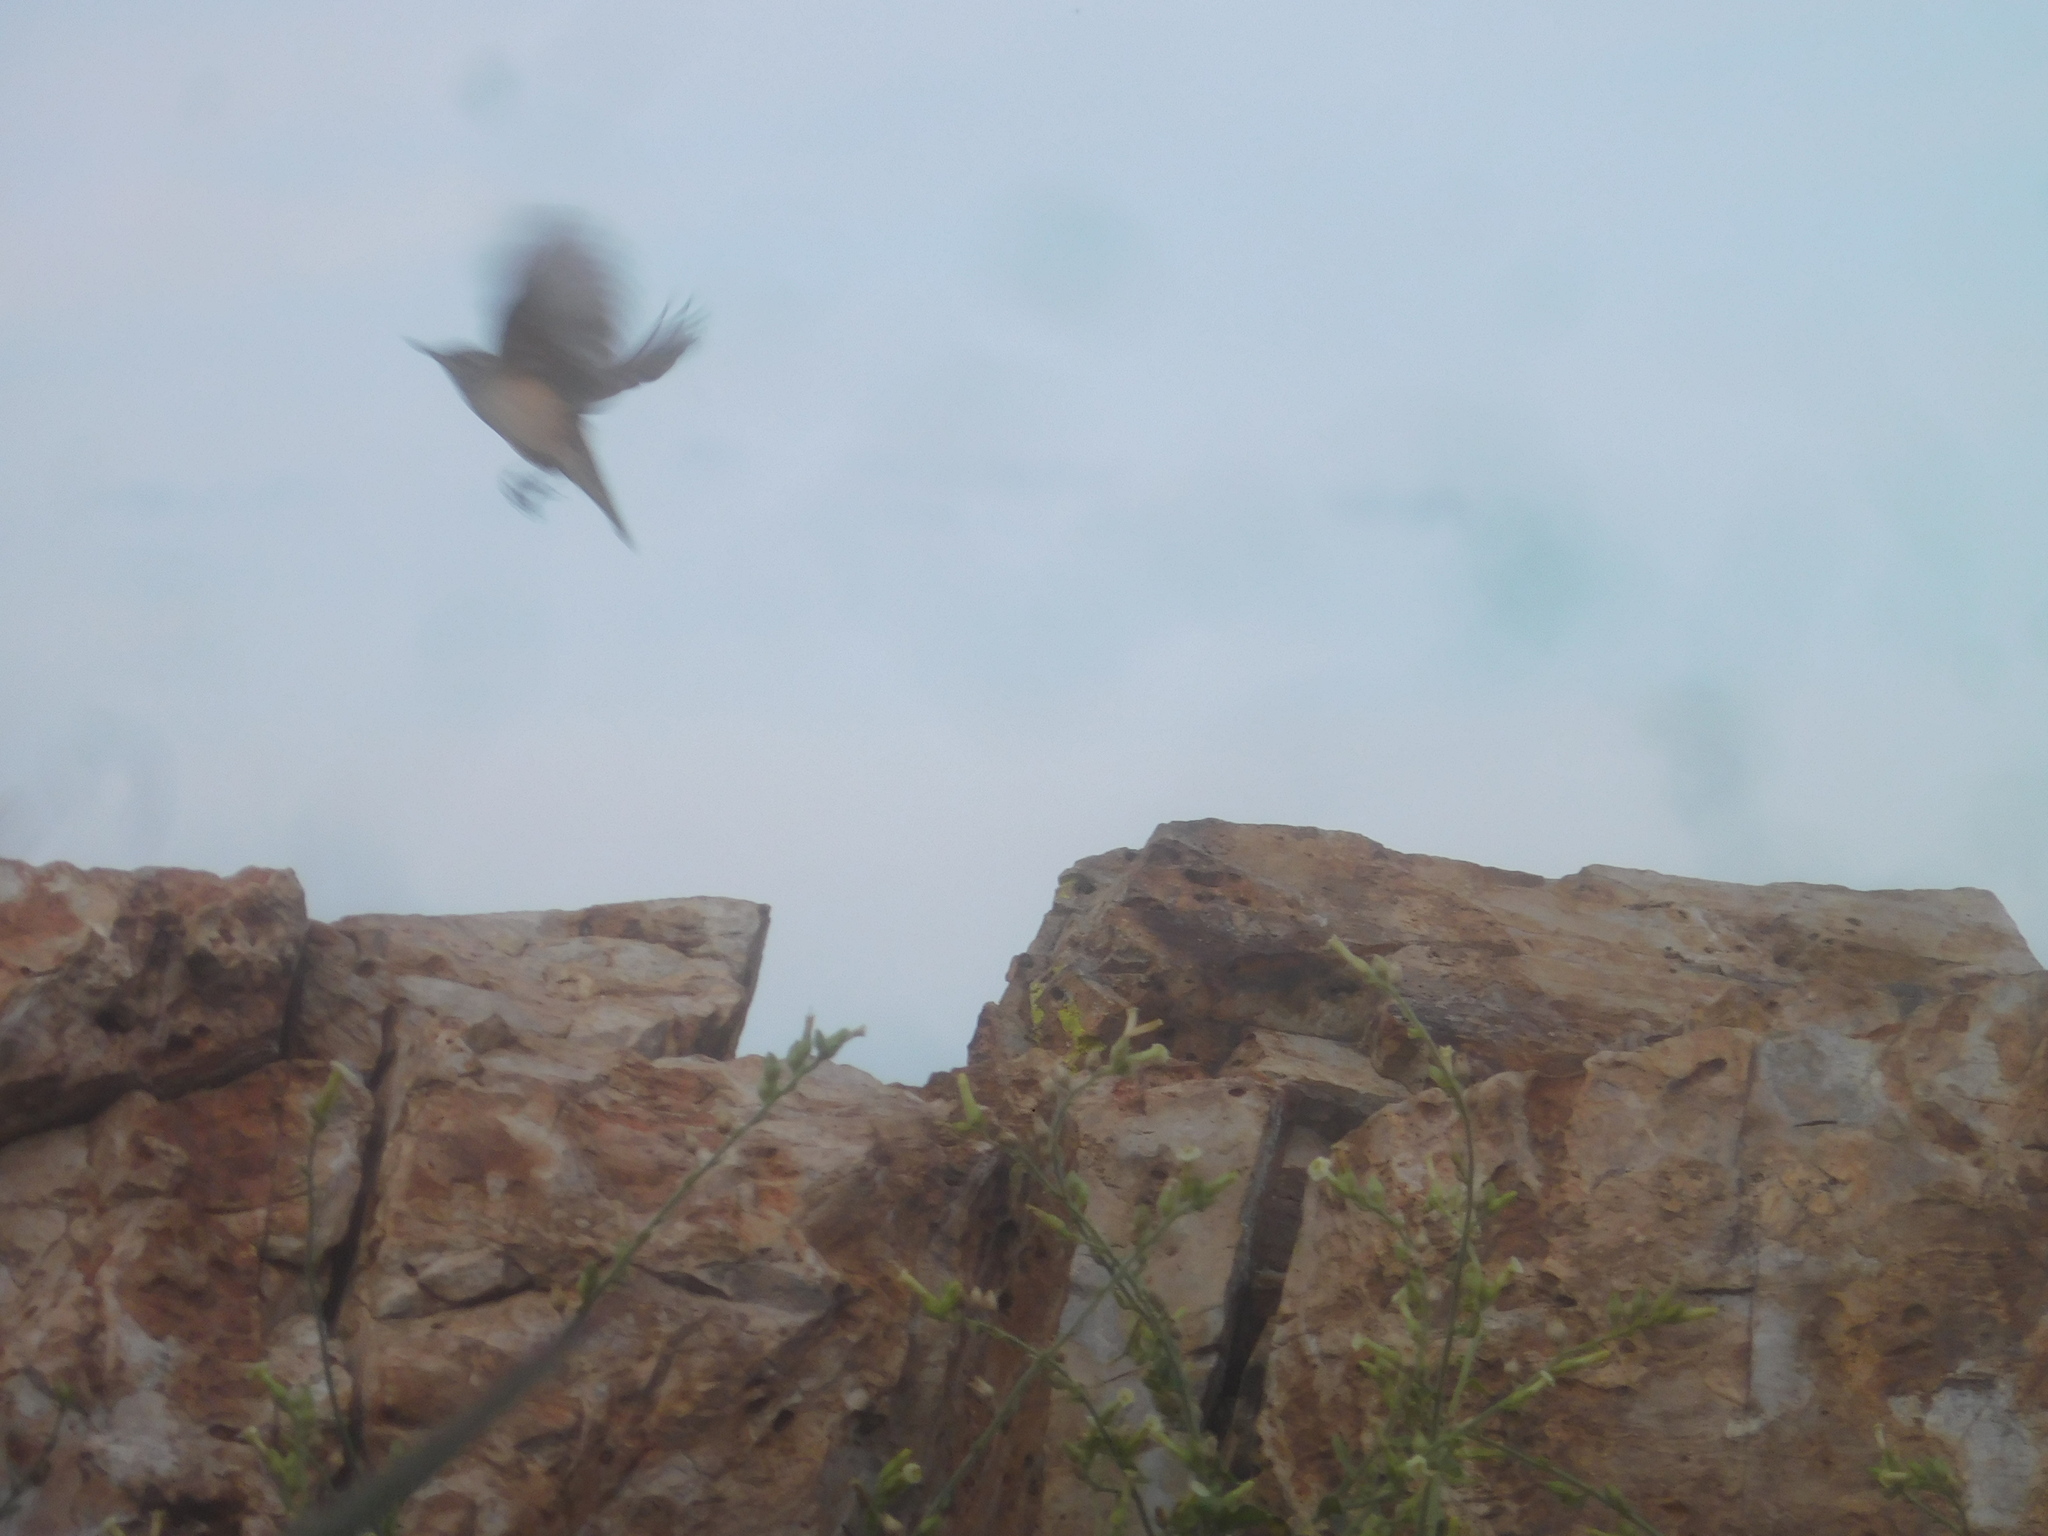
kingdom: Animalia
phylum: Chordata
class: Aves
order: Passeriformes
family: Troglodytidae
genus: Salpinctes
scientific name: Salpinctes obsoletus
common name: Rock wren
